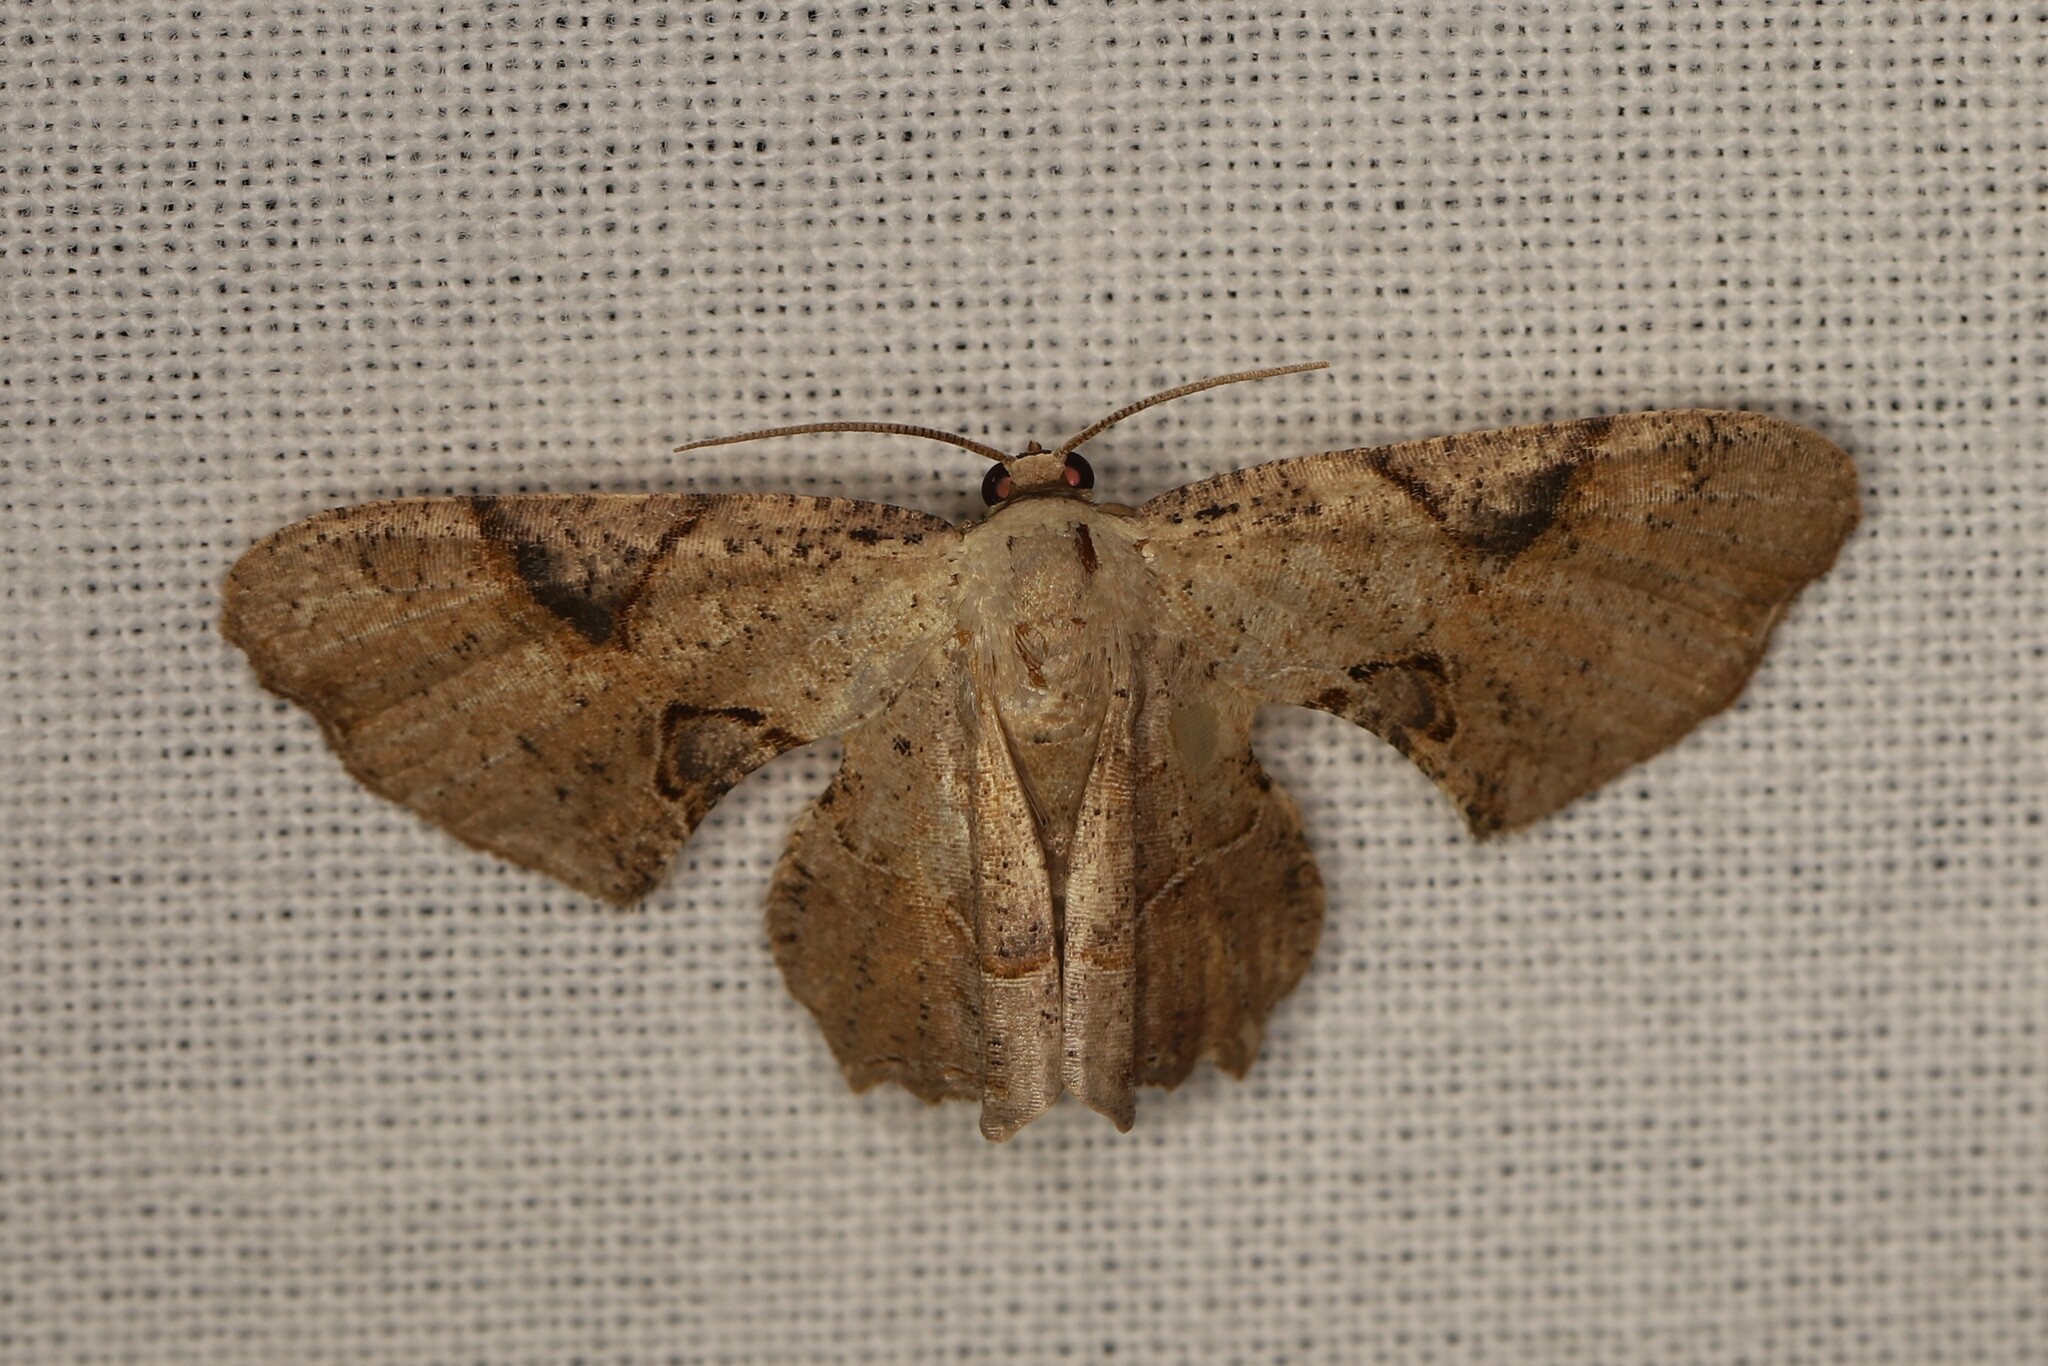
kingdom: Animalia
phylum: Arthropoda
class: Insecta
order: Lepidoptera
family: Uraniidae
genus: Epiplema
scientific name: Epiplema Calledapteryx dryopterata
